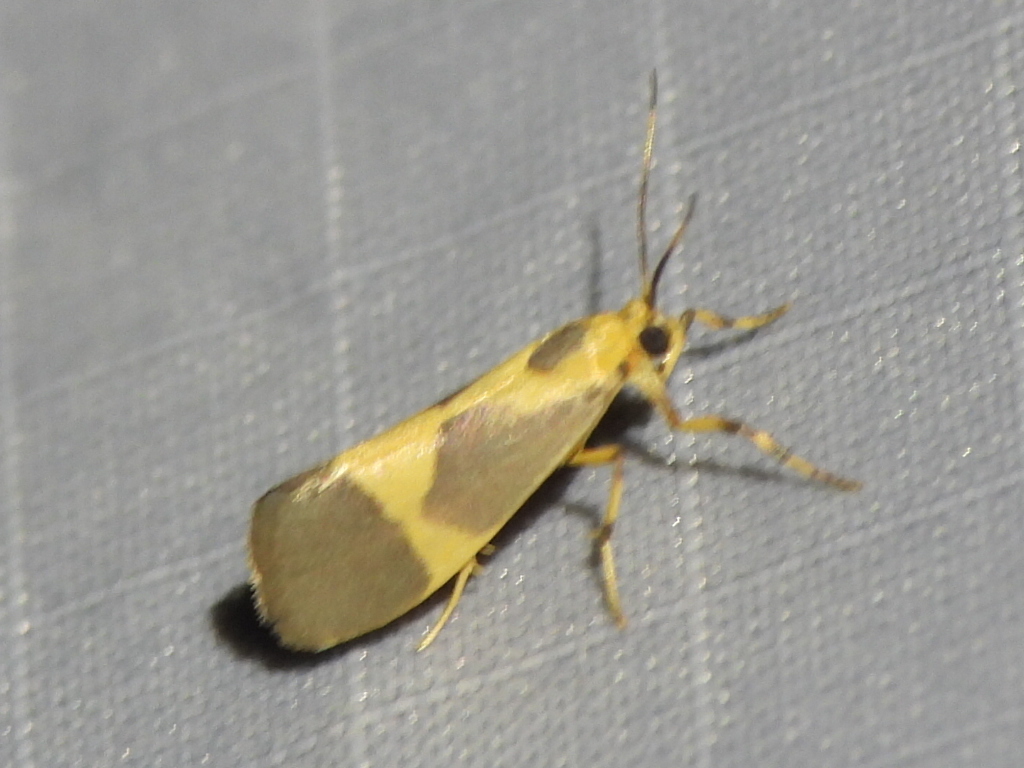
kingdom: Animalia
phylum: Arthropoda
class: Insecta
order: Lepidoptera
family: Erebidae
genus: Cisthene
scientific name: Cisthene unifascia
